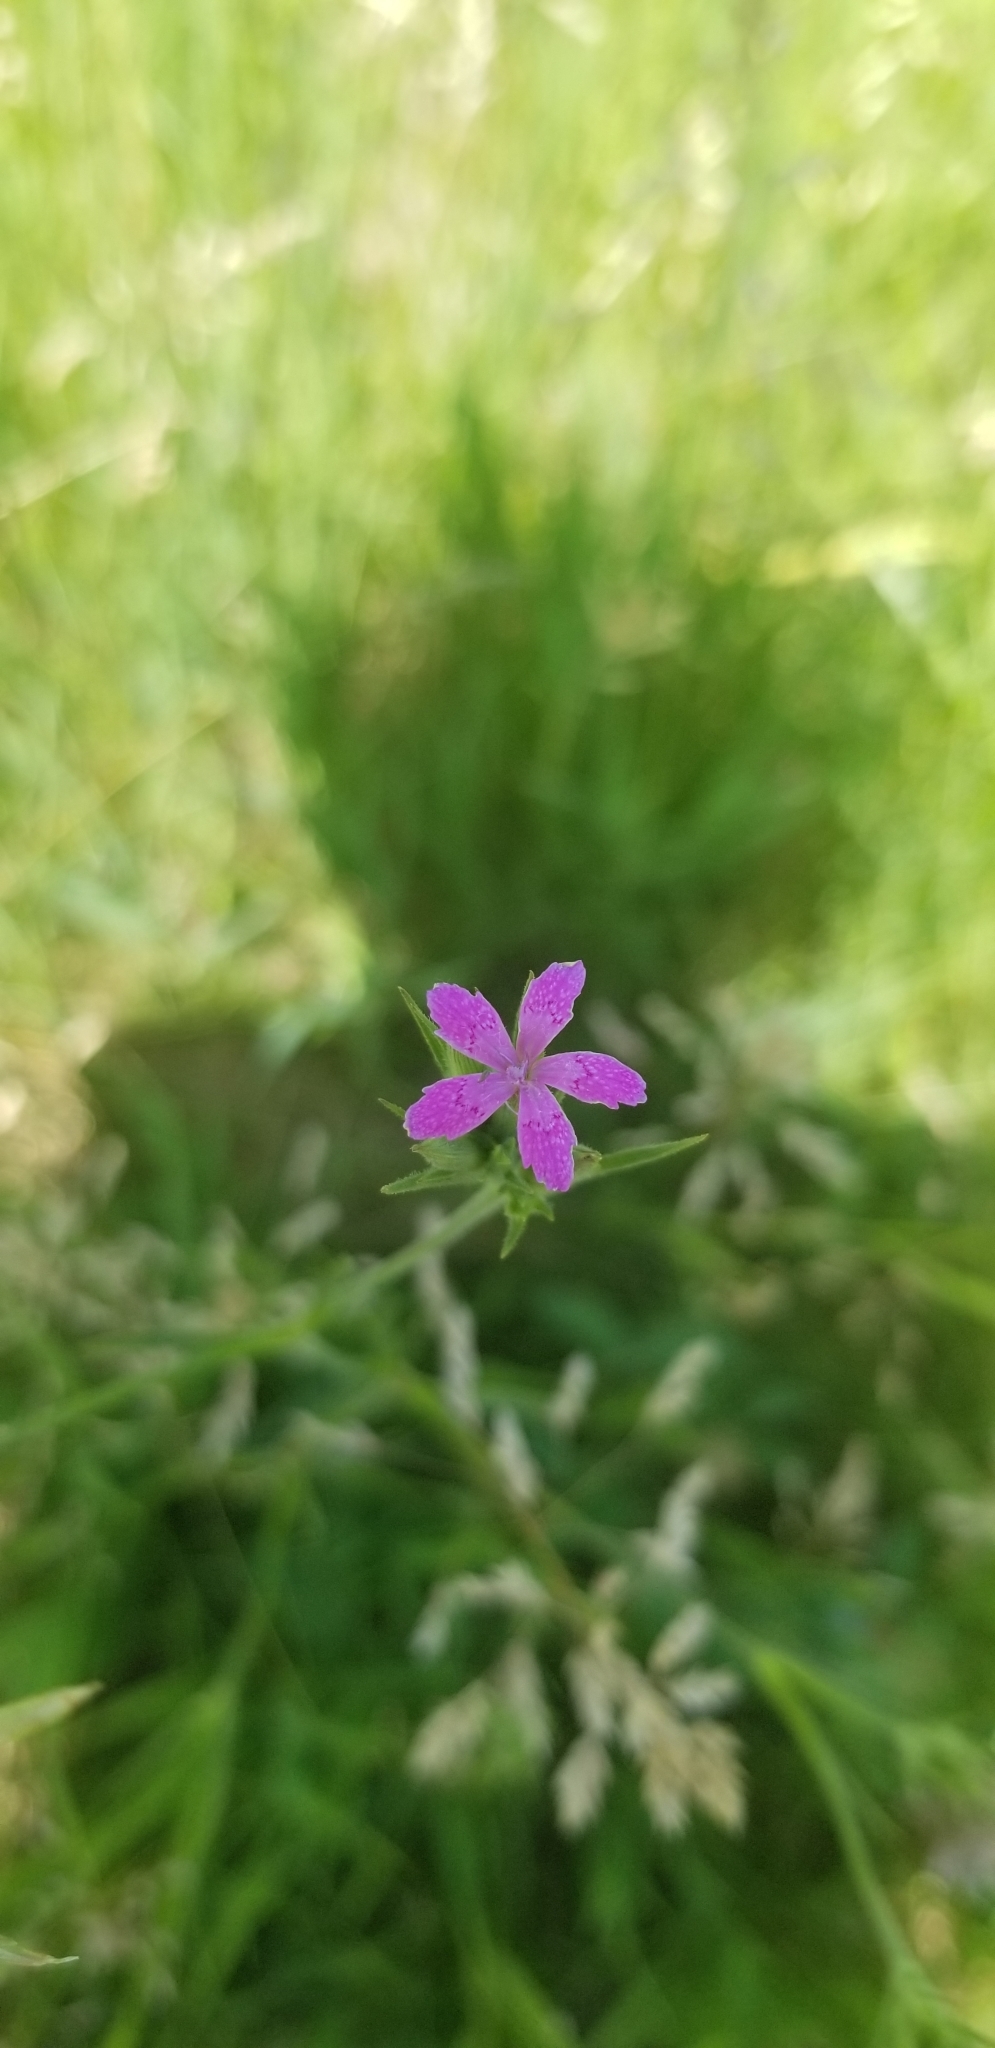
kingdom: Plantae
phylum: Tracheophyta
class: Magnoliopsida
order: Caryophyllales
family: Caryophyllaceae
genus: Dianthus
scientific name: Dianthus armeria
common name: Deptford pink
